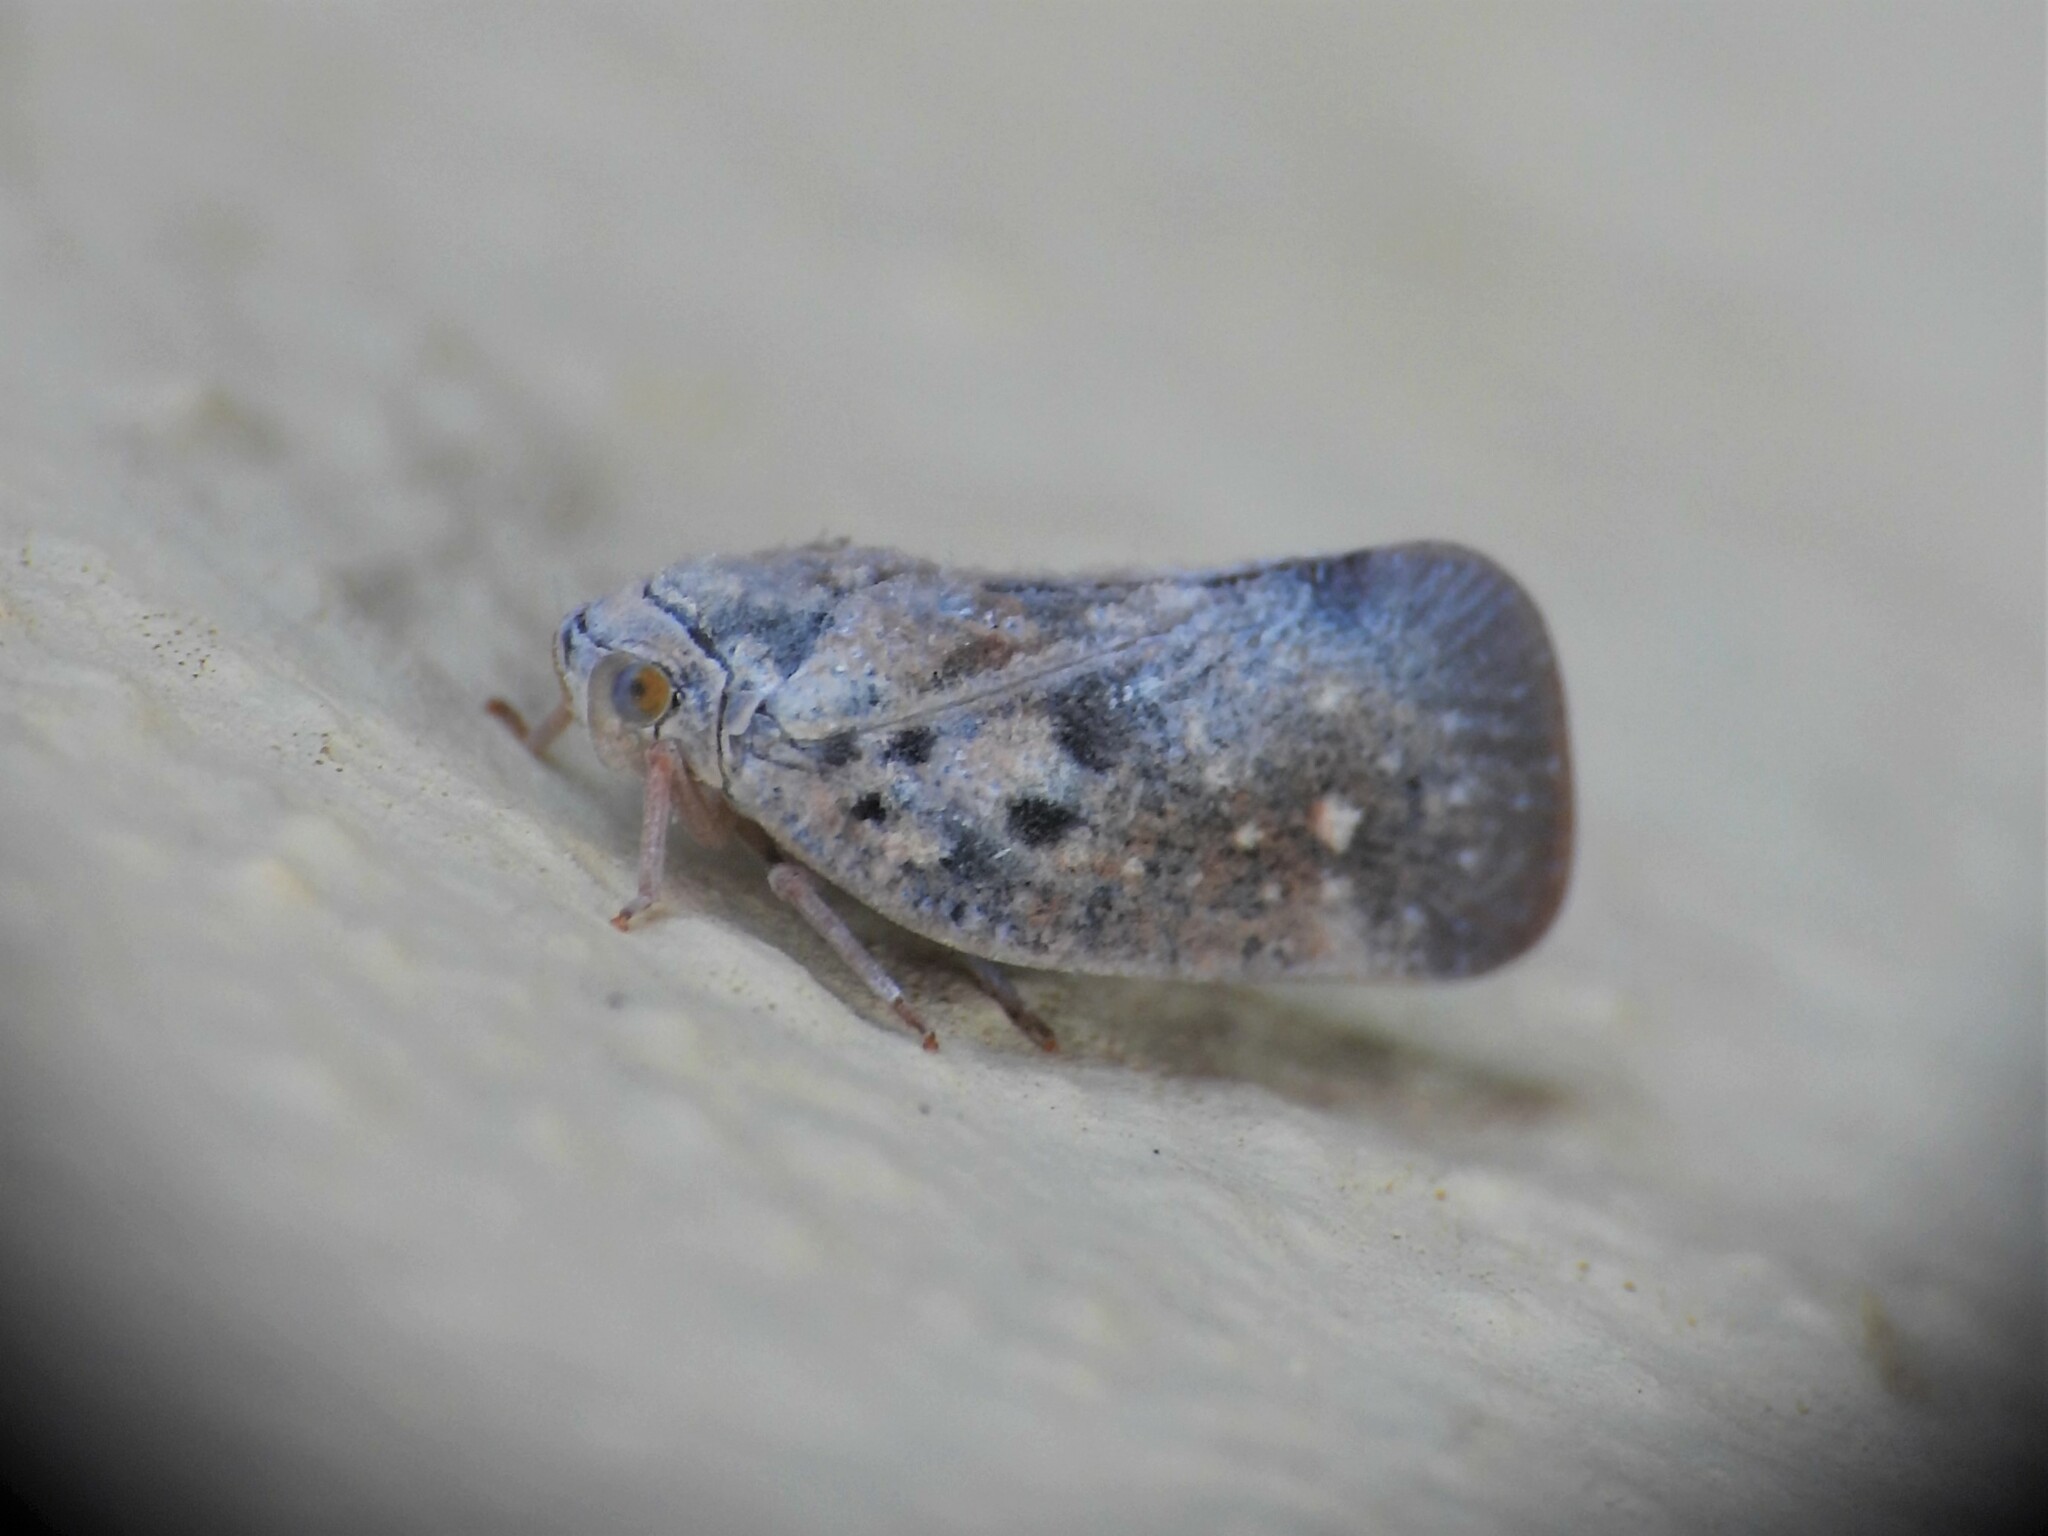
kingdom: Animalia
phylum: Arthropoda
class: Insecta
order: Hemiptera
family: Flatidae
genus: Metcalfa
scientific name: Metcalfa pruinosa
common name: Citrus flatid planthopper
